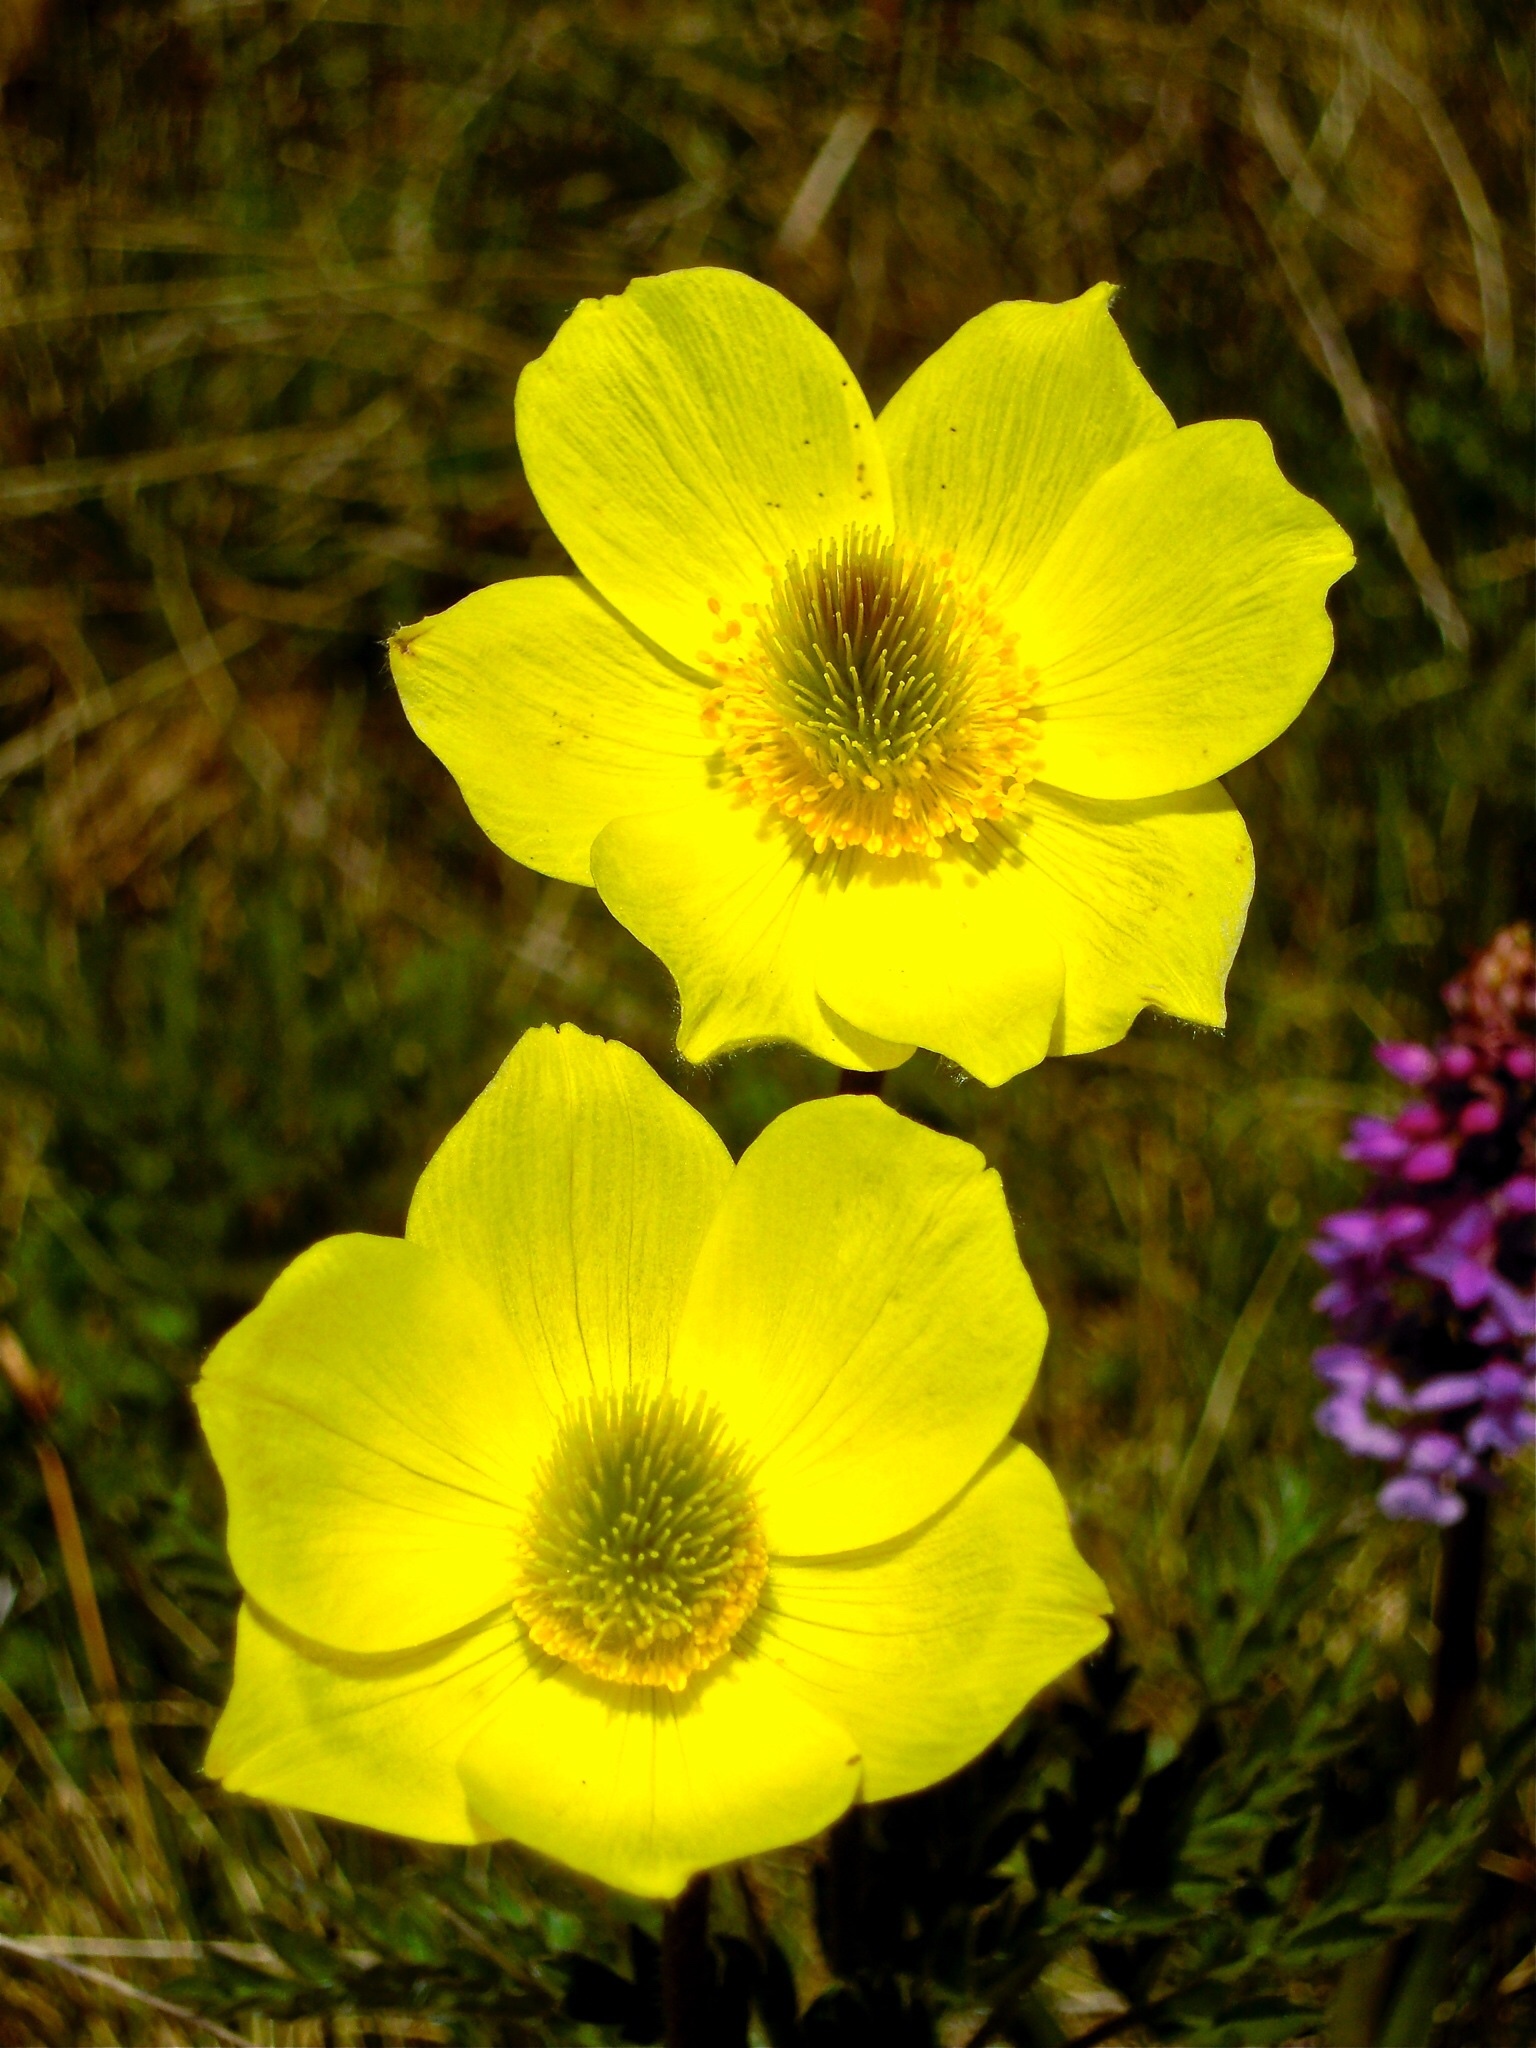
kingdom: Plantae
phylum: Tracheophyta
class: Magnoliopsida
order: Ranunculales
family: Ranunculaceae
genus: Pulsatilla
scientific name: Pulsatilla alpina
